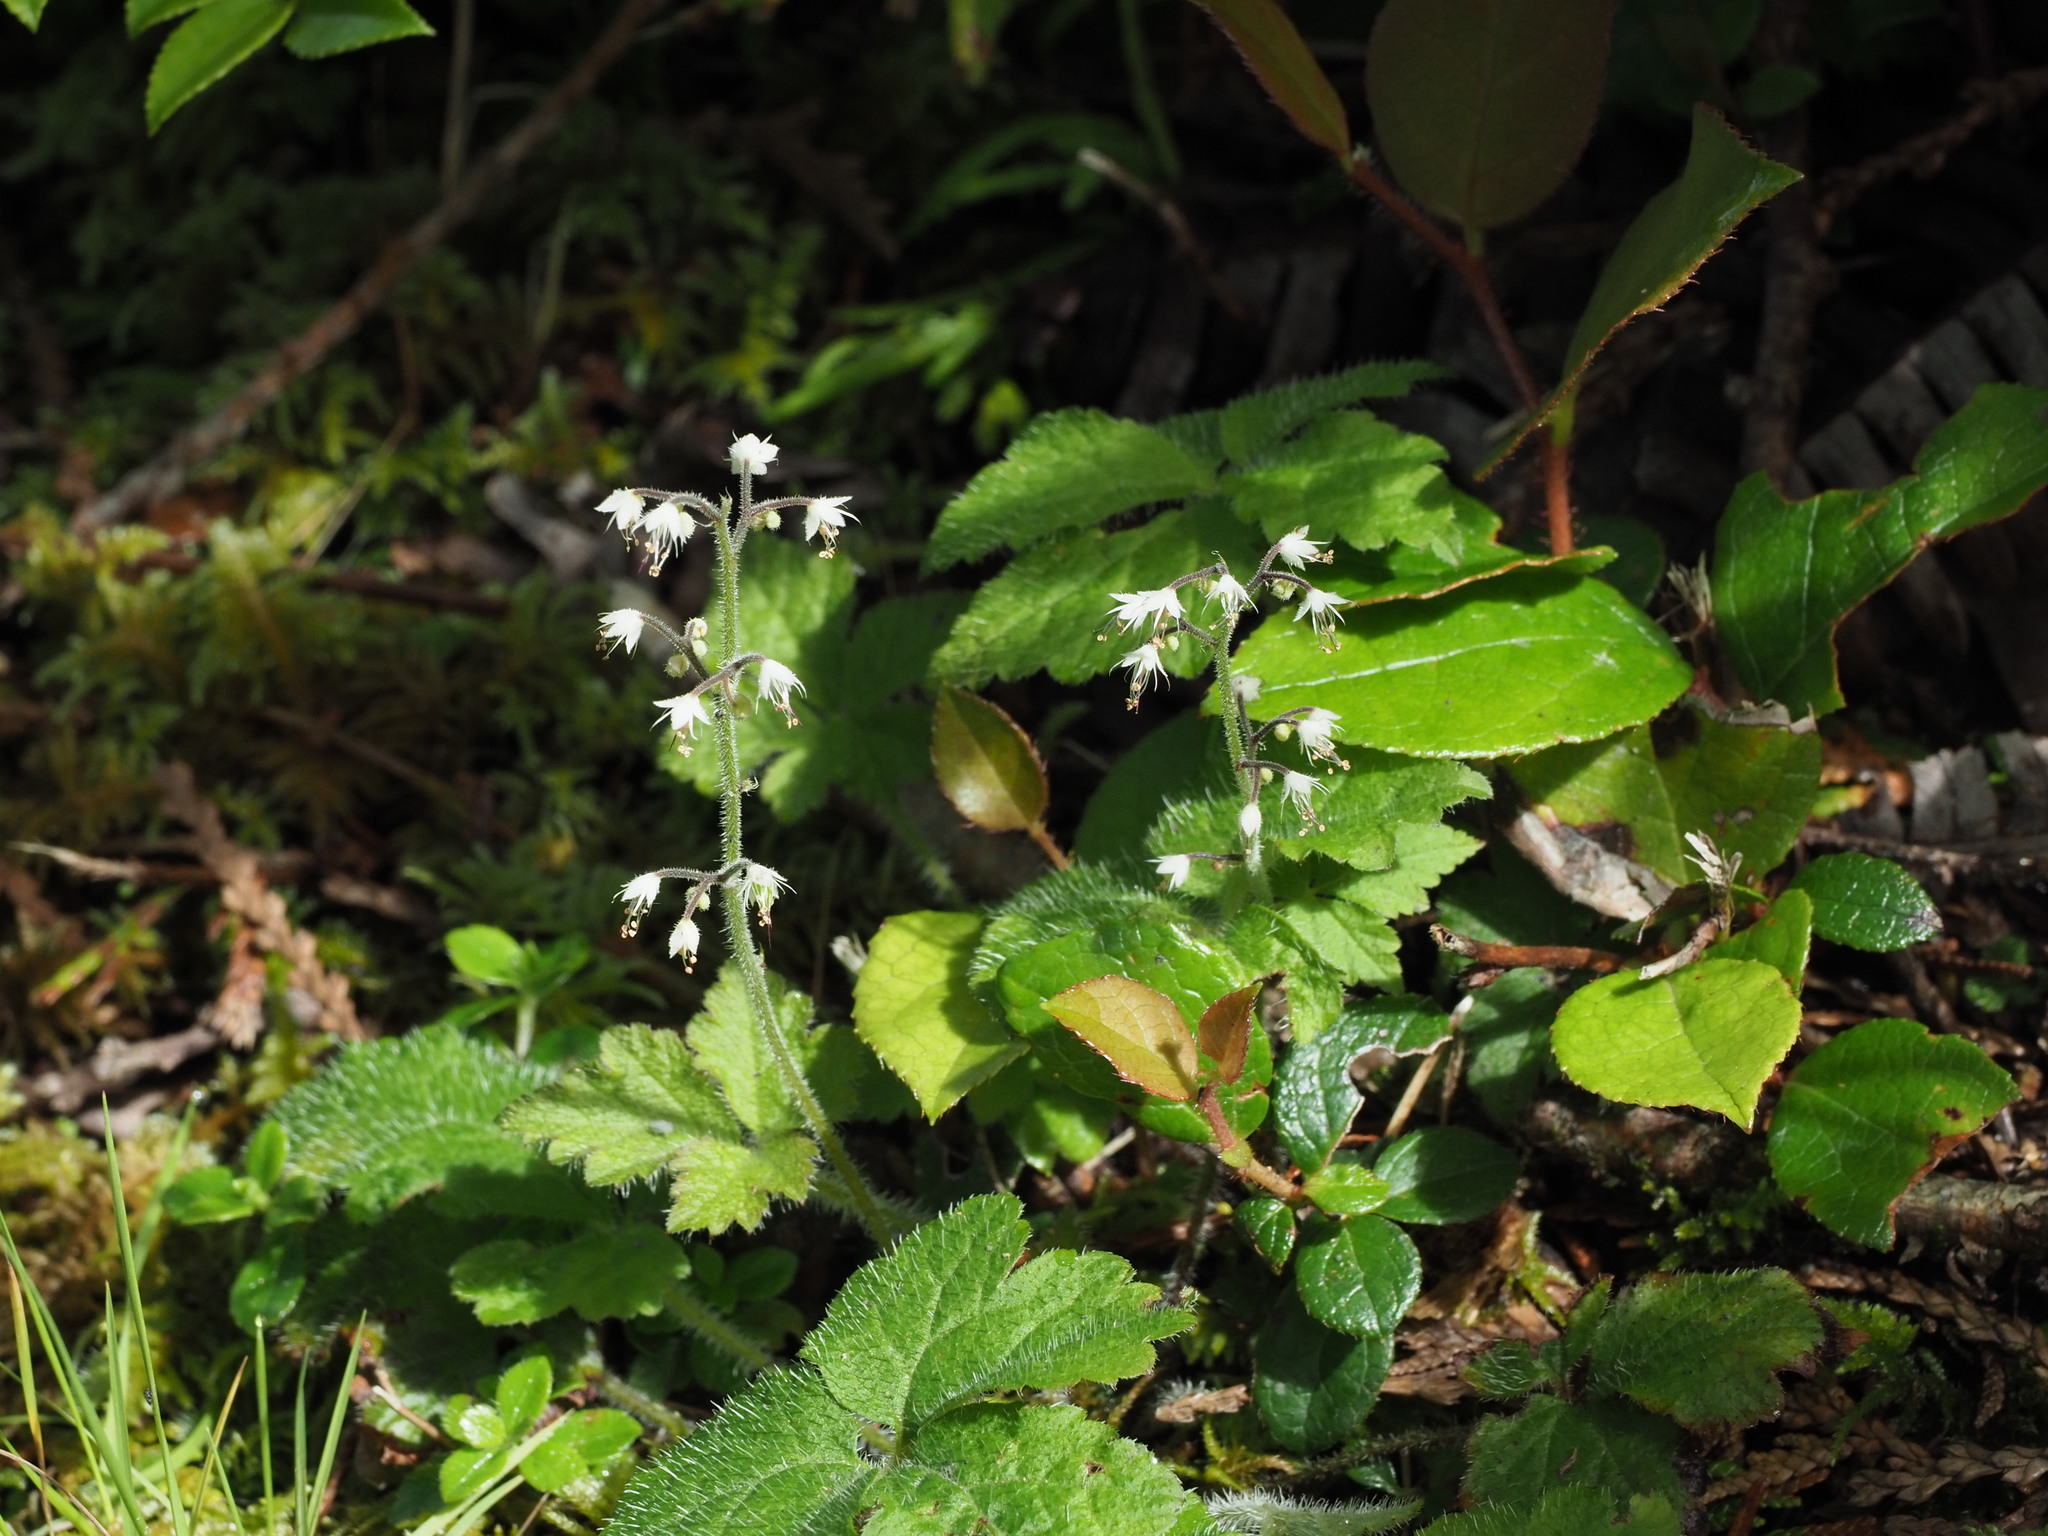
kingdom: Plantae
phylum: Tracheophyta
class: Magnoliopsida
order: Saxifragales
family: Saxifragaceae
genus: Tiarella
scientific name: Tiarella trifoliata
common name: Sugar-scoop
